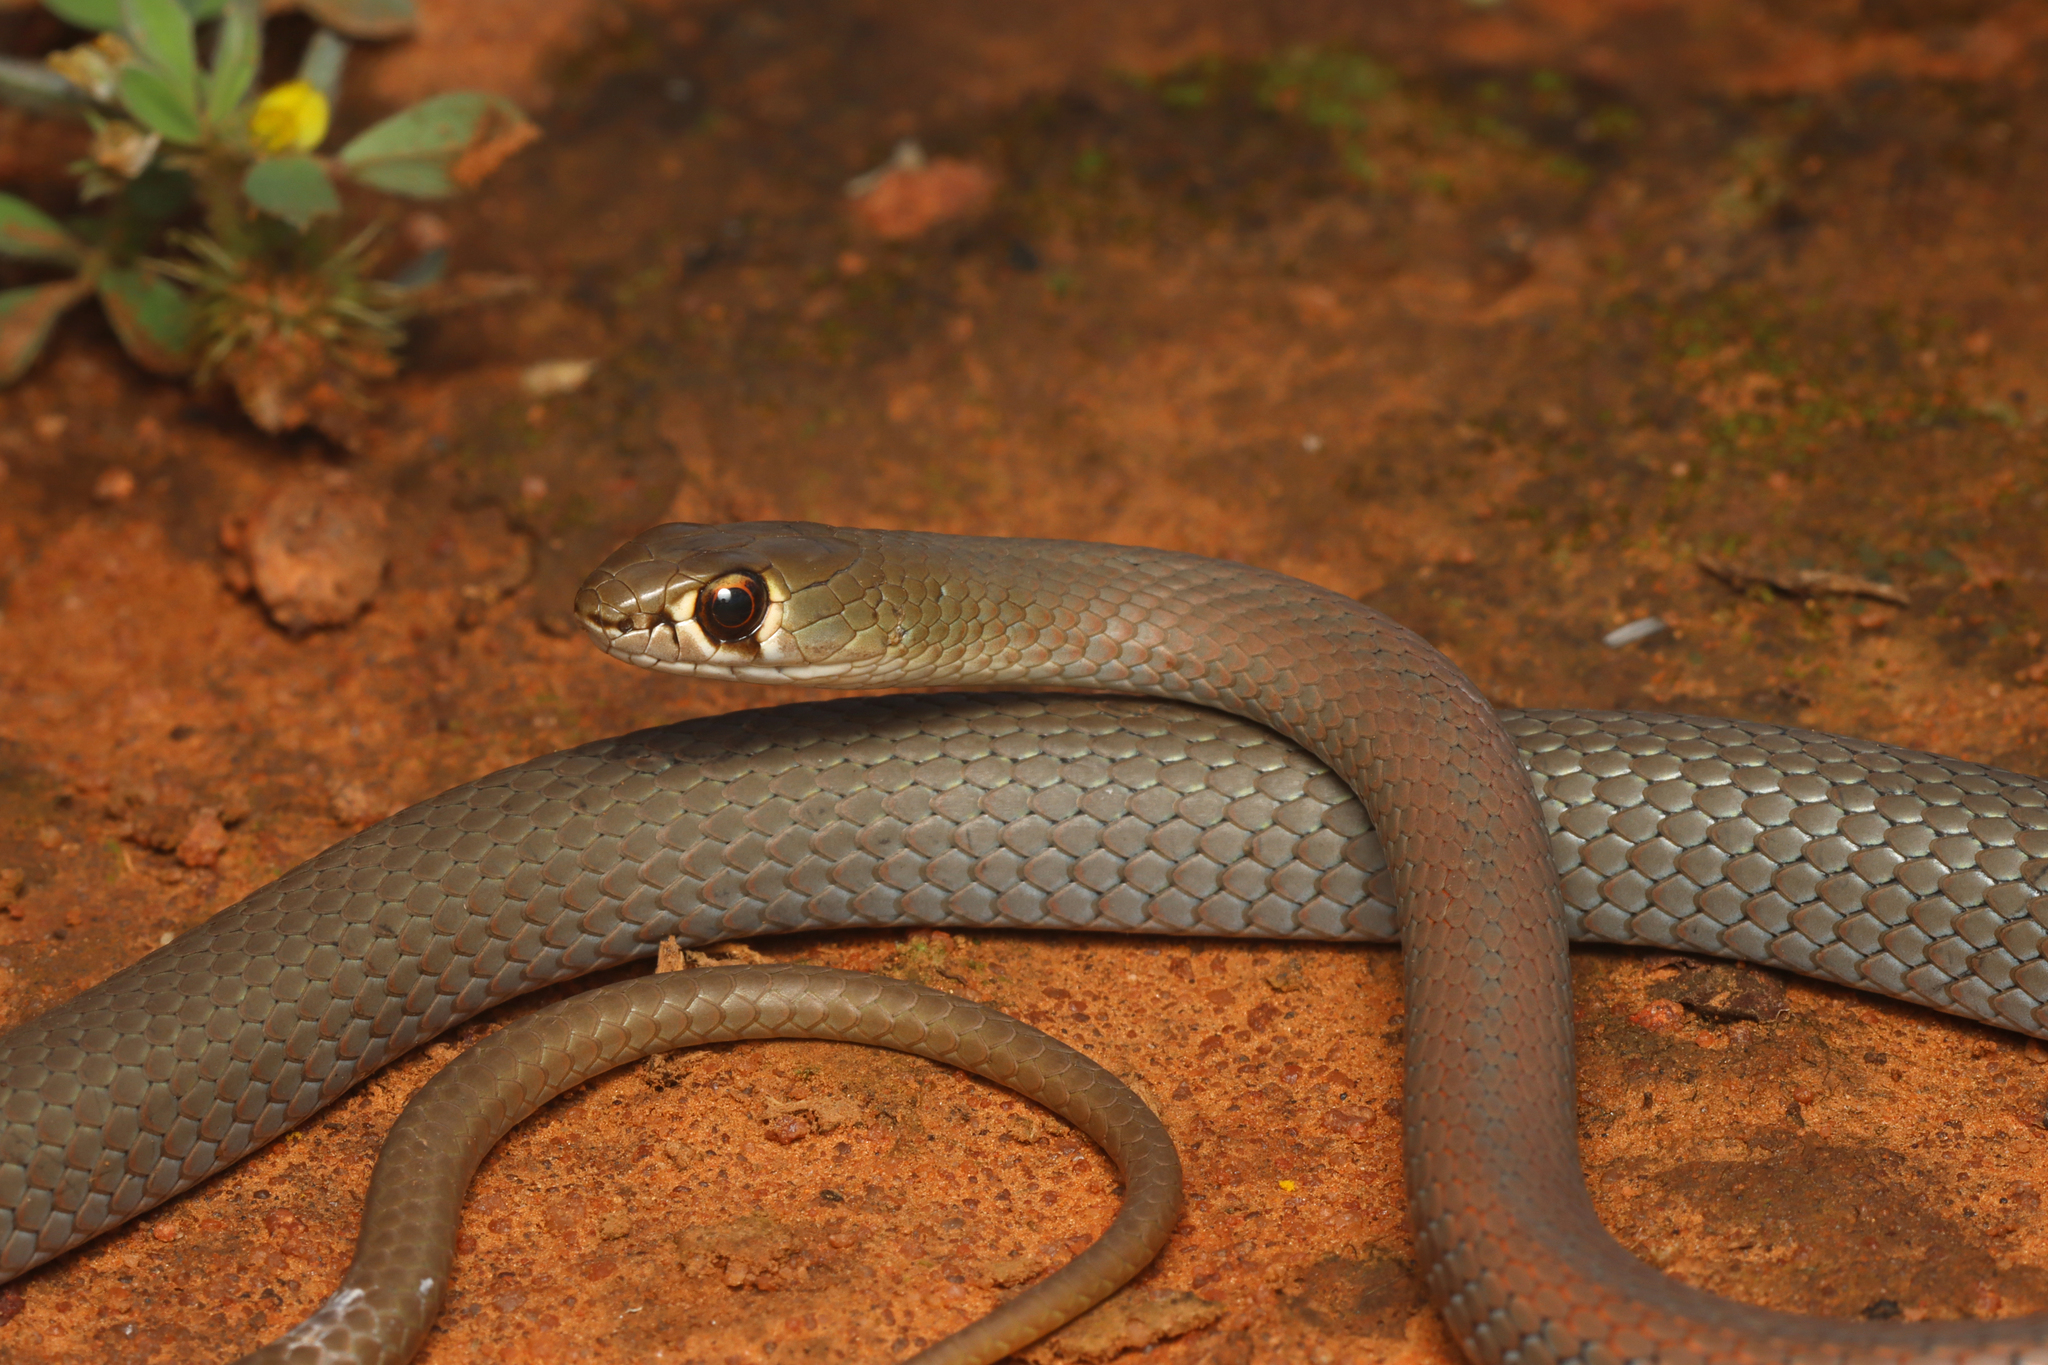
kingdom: Animalia
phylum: Chordata
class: Squamata
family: Elapidae
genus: Demansia
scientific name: Demansia psammophis
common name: Yellow-faced whip snake
